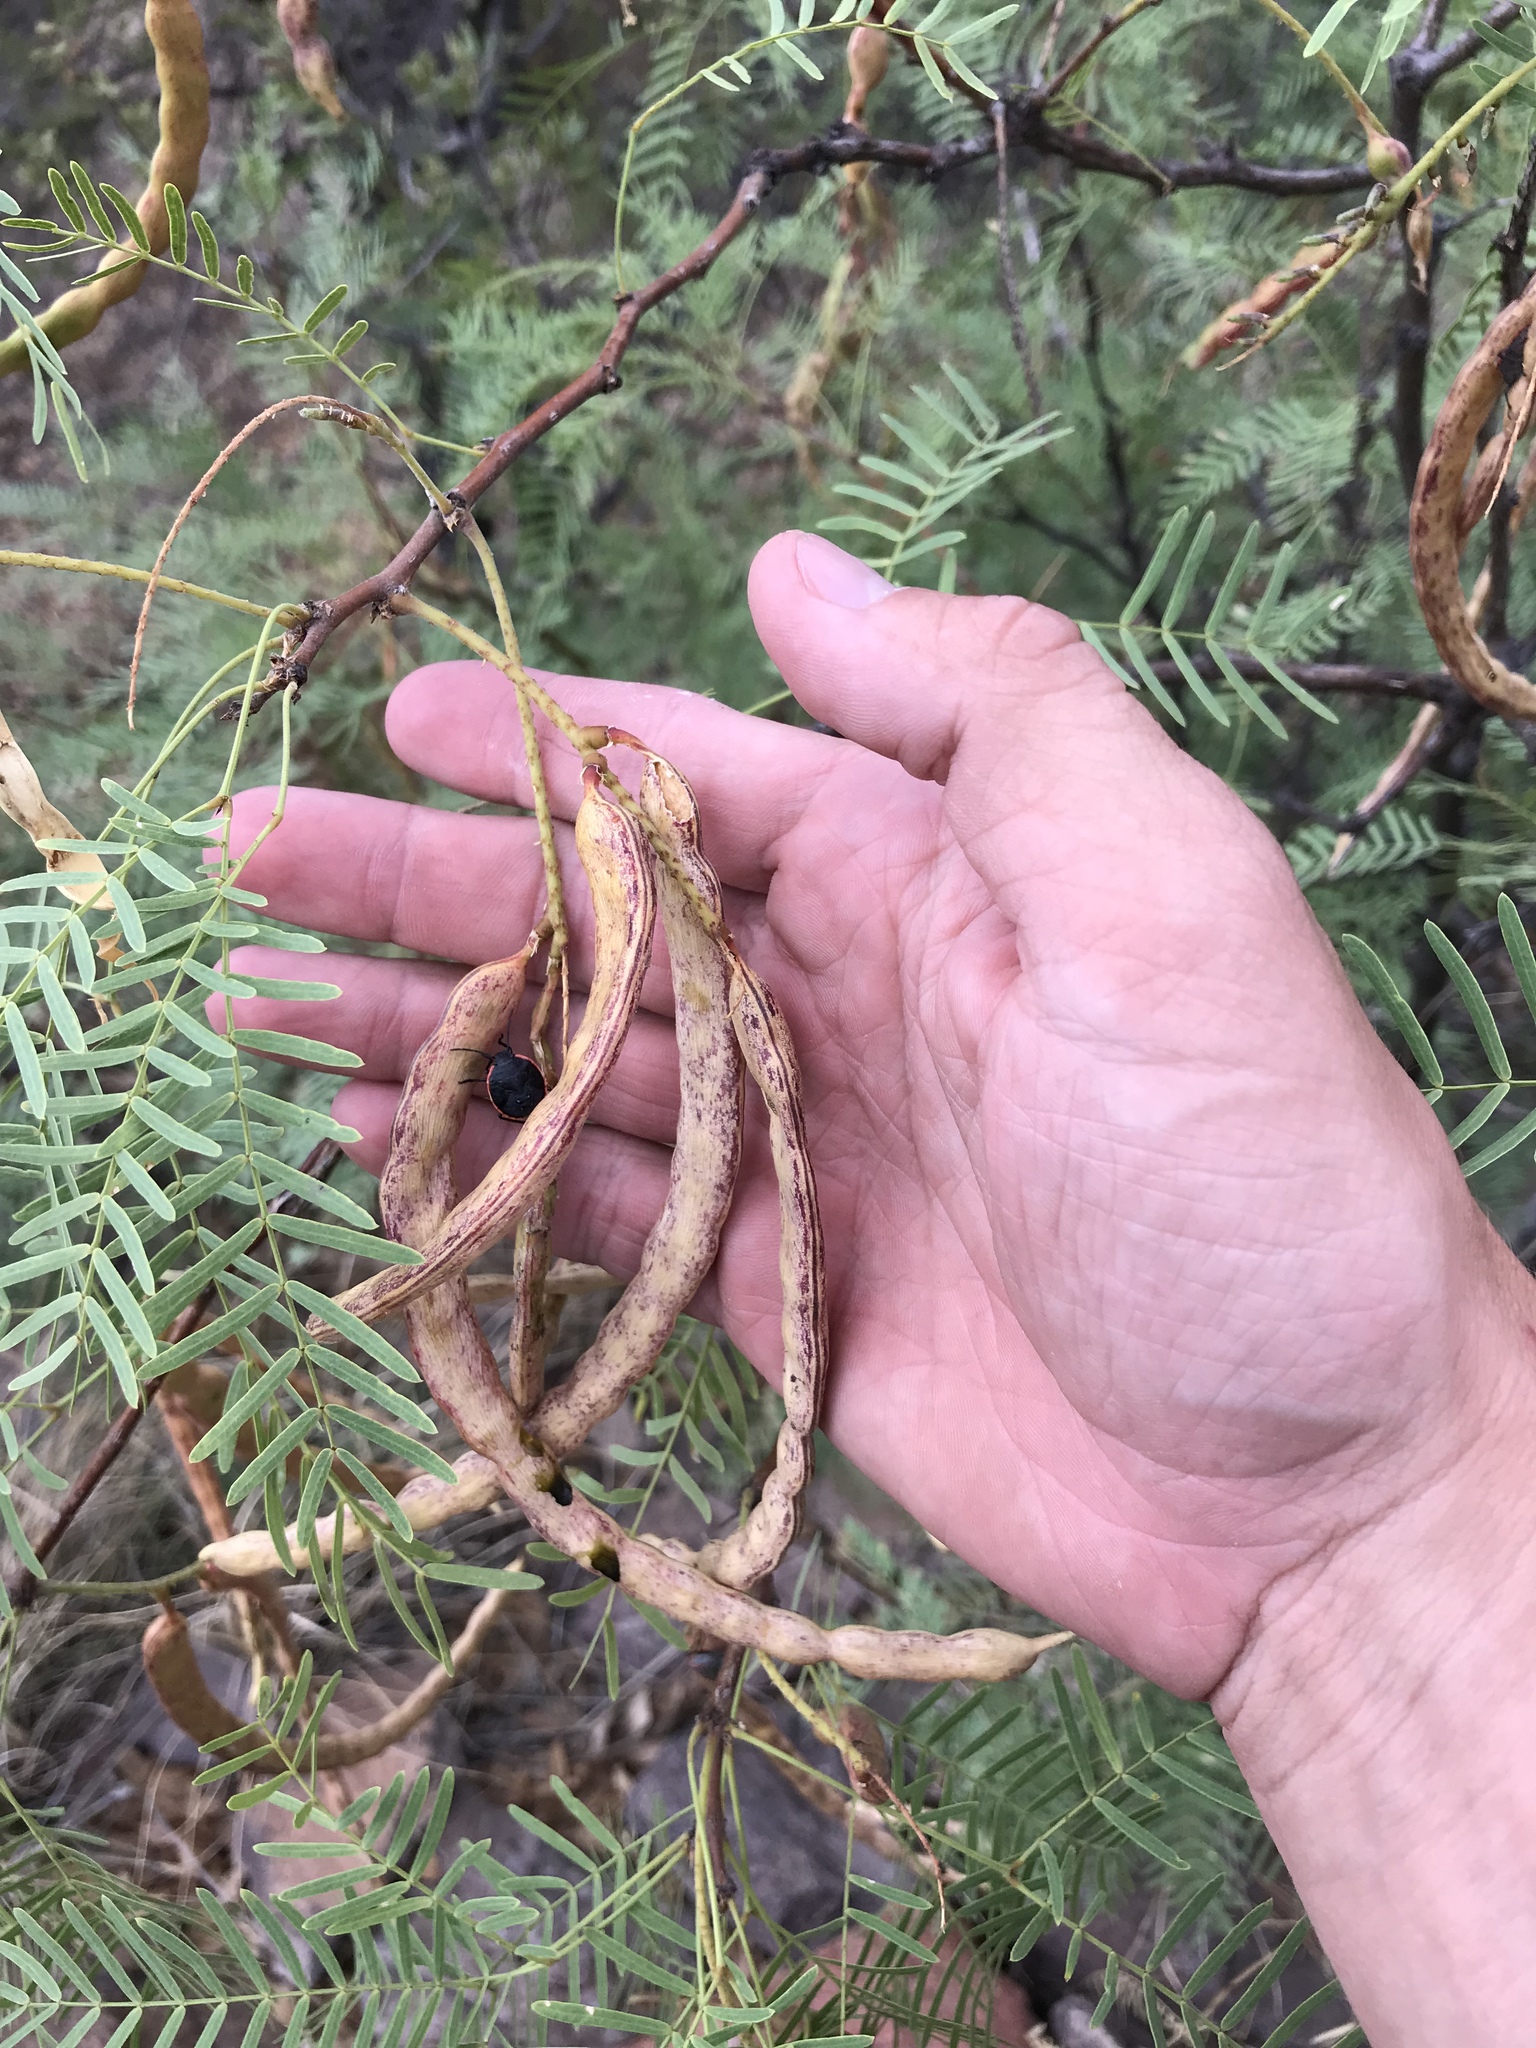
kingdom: Plantae
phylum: Tracheophyta
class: Magnoliopsida
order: Fabales
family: Fabaceae
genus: Prosopis
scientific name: Prosopis glandulosa
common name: Honey mesquite
